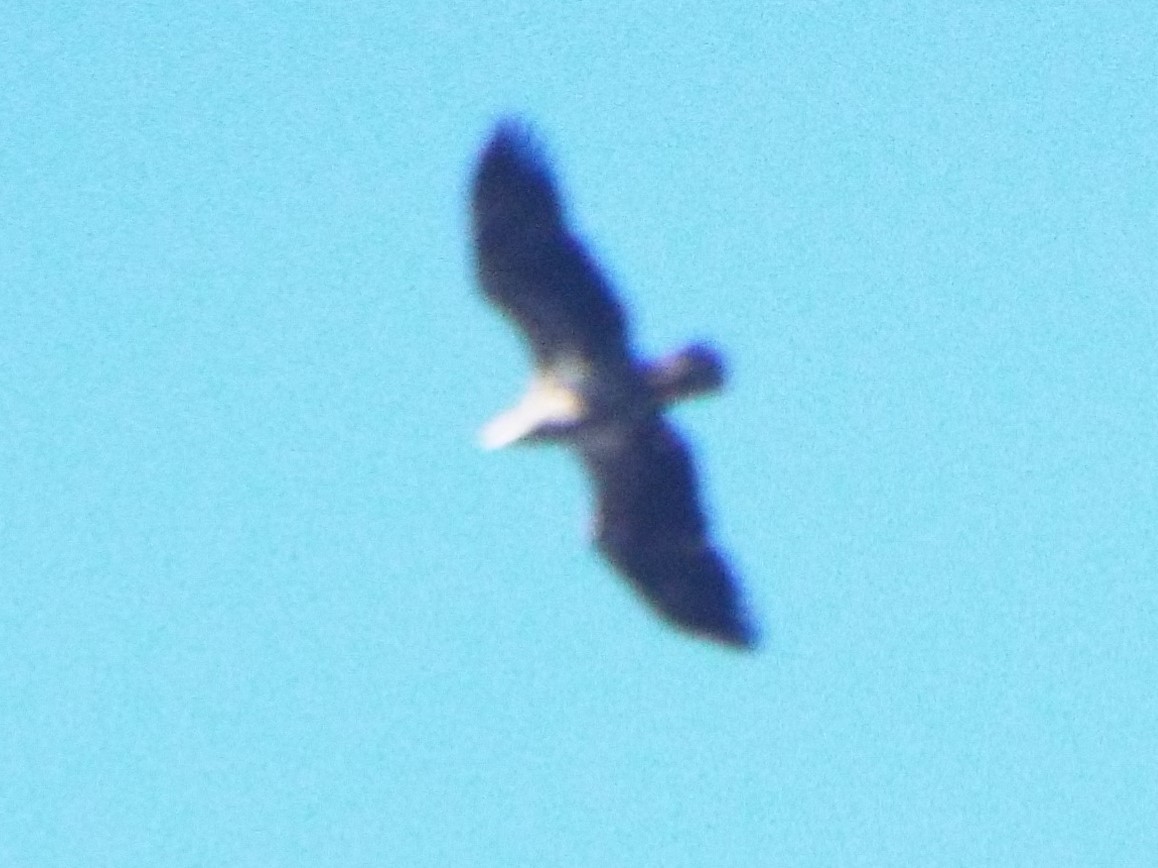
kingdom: Animalia
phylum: Chordata
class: Aves
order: Accipitriformes
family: Accipitridae
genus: Haliaeetus
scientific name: Haliaeetus leucocephalus
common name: Bald eagle
